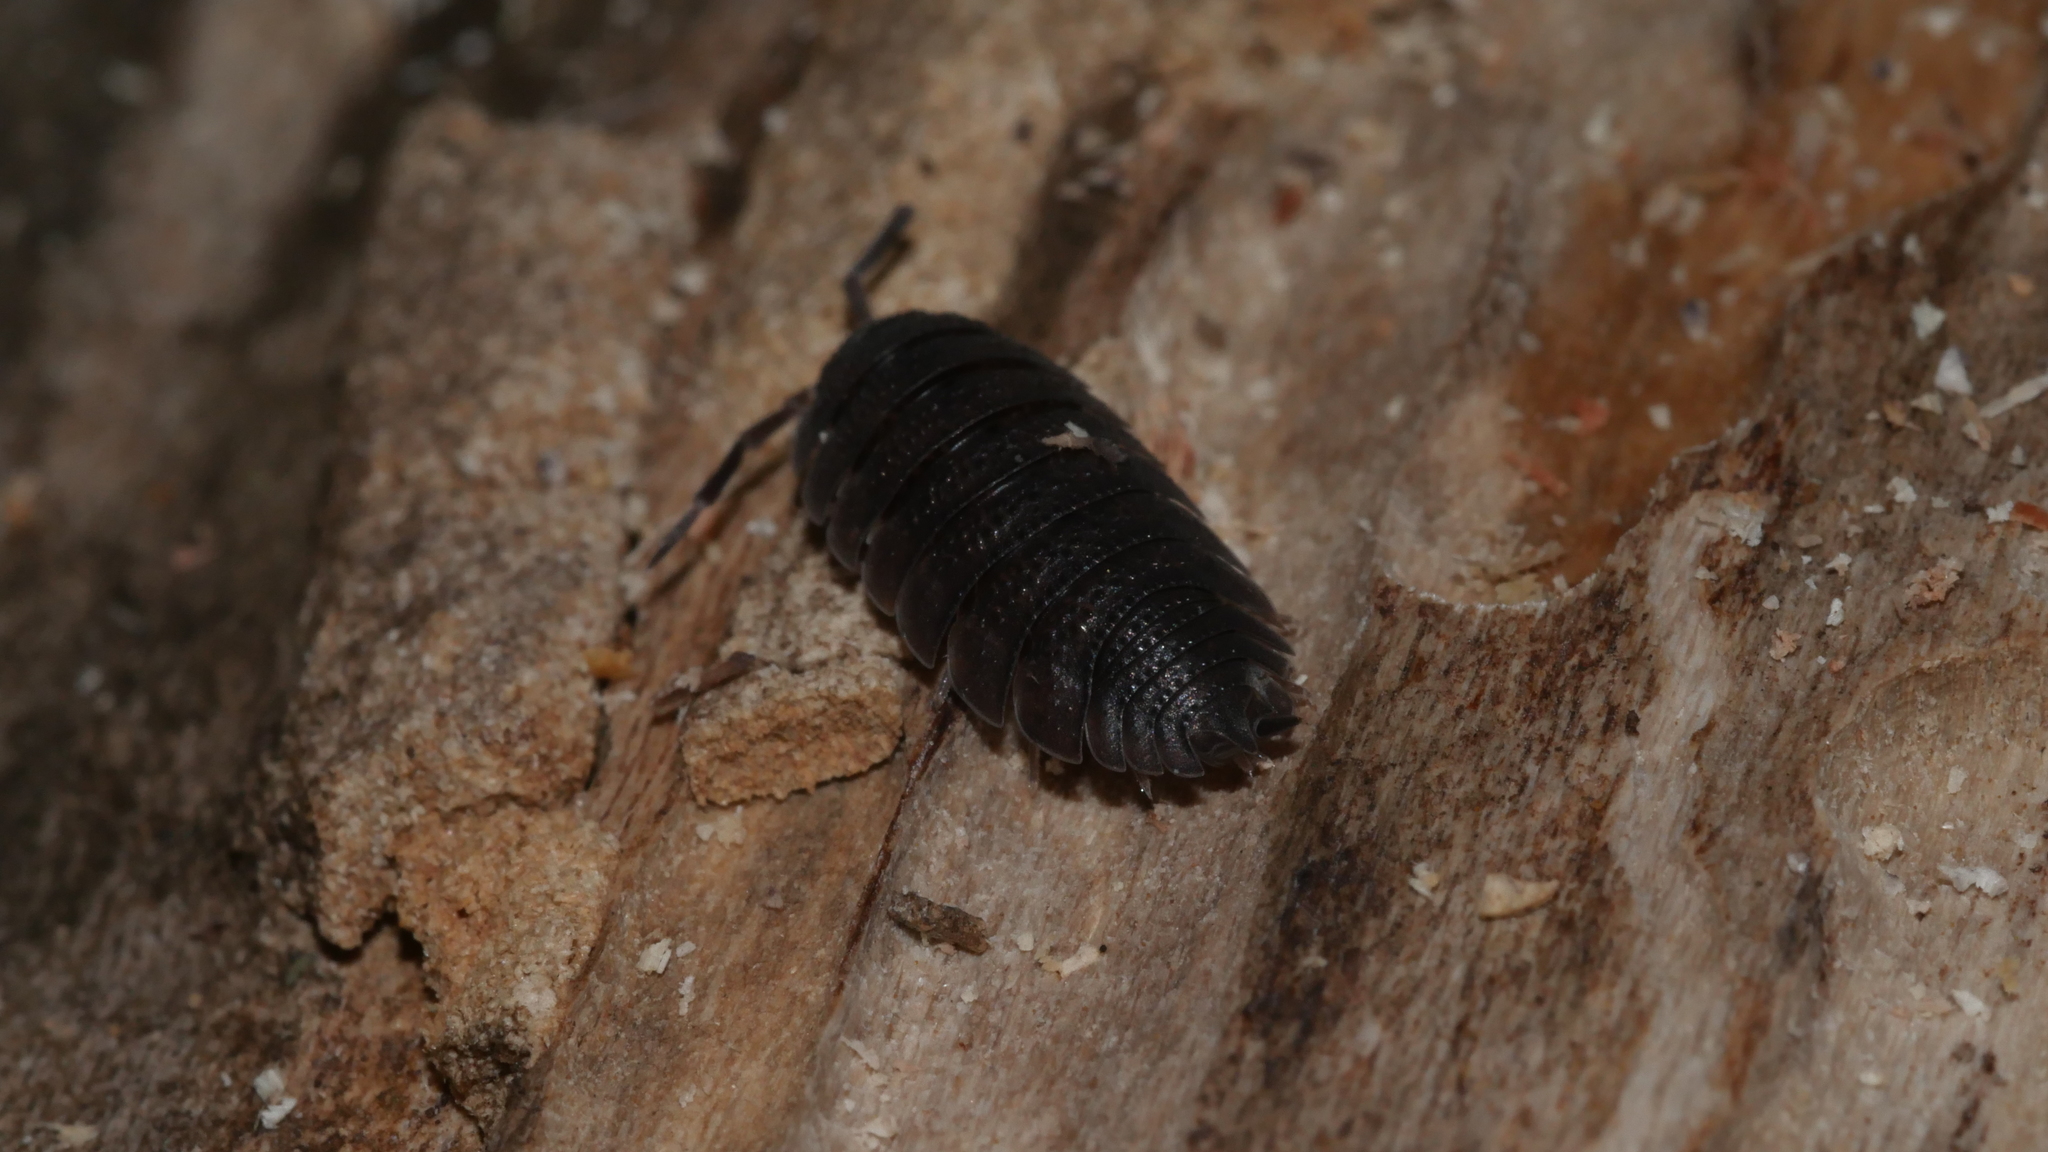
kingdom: Animalia
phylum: Arthropoda
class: Malacostraca
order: Isopoda
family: Porcellionidae
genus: Porcellio
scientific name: Porcellio scaber
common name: Common rough woodlouse
